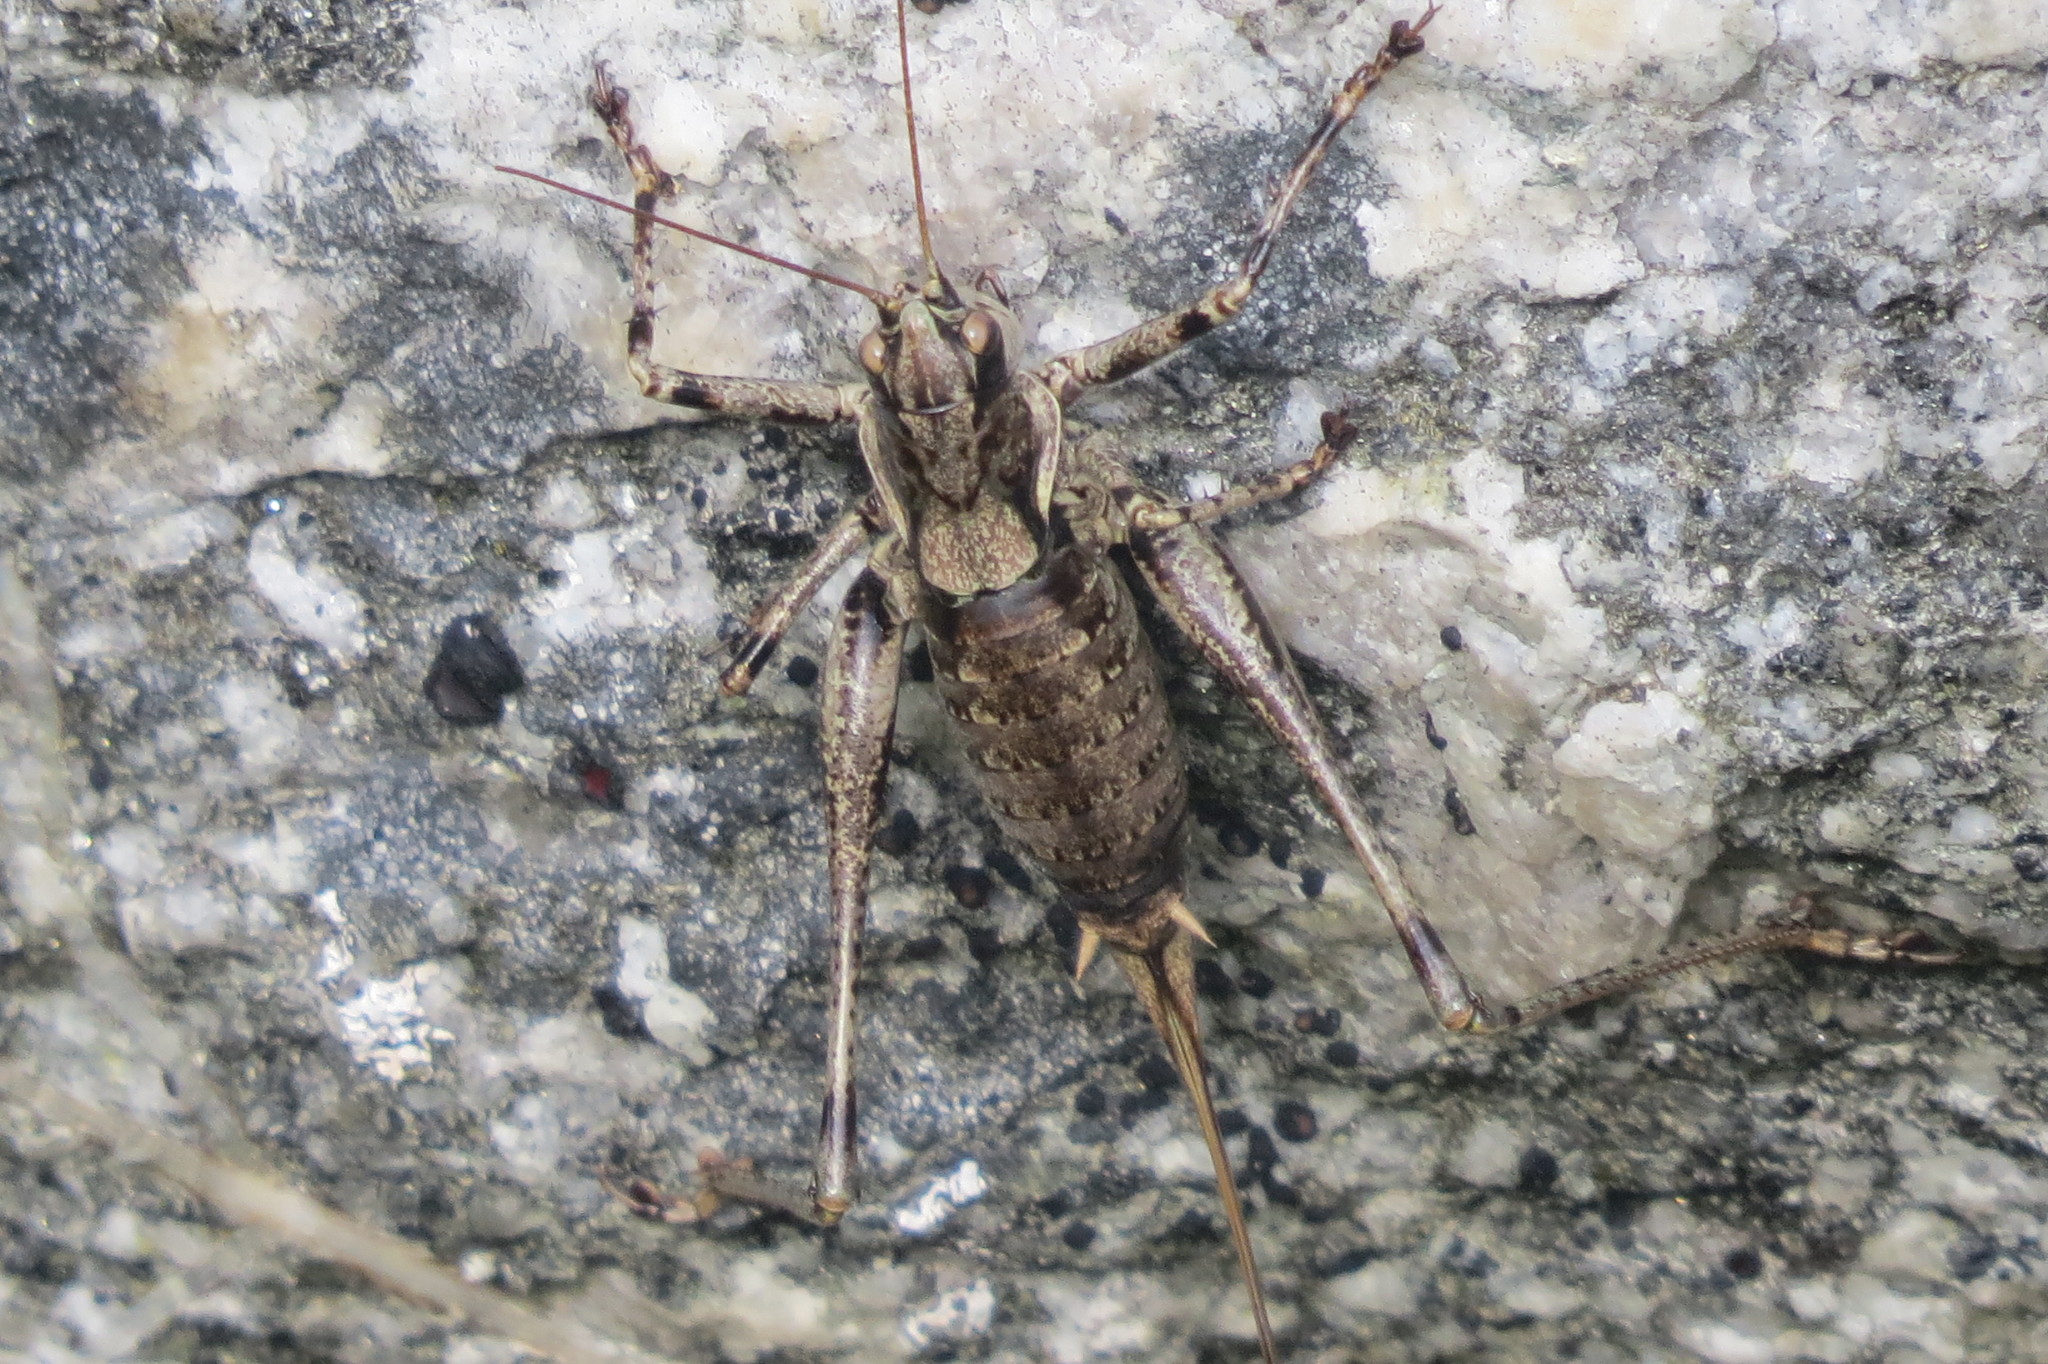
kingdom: Animalia
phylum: Arthropoda
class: Insecta
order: Orthoptera
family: Tettigoniidae
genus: Antaxius
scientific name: Antaxius pedestris
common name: Common mountain bush-cricket
